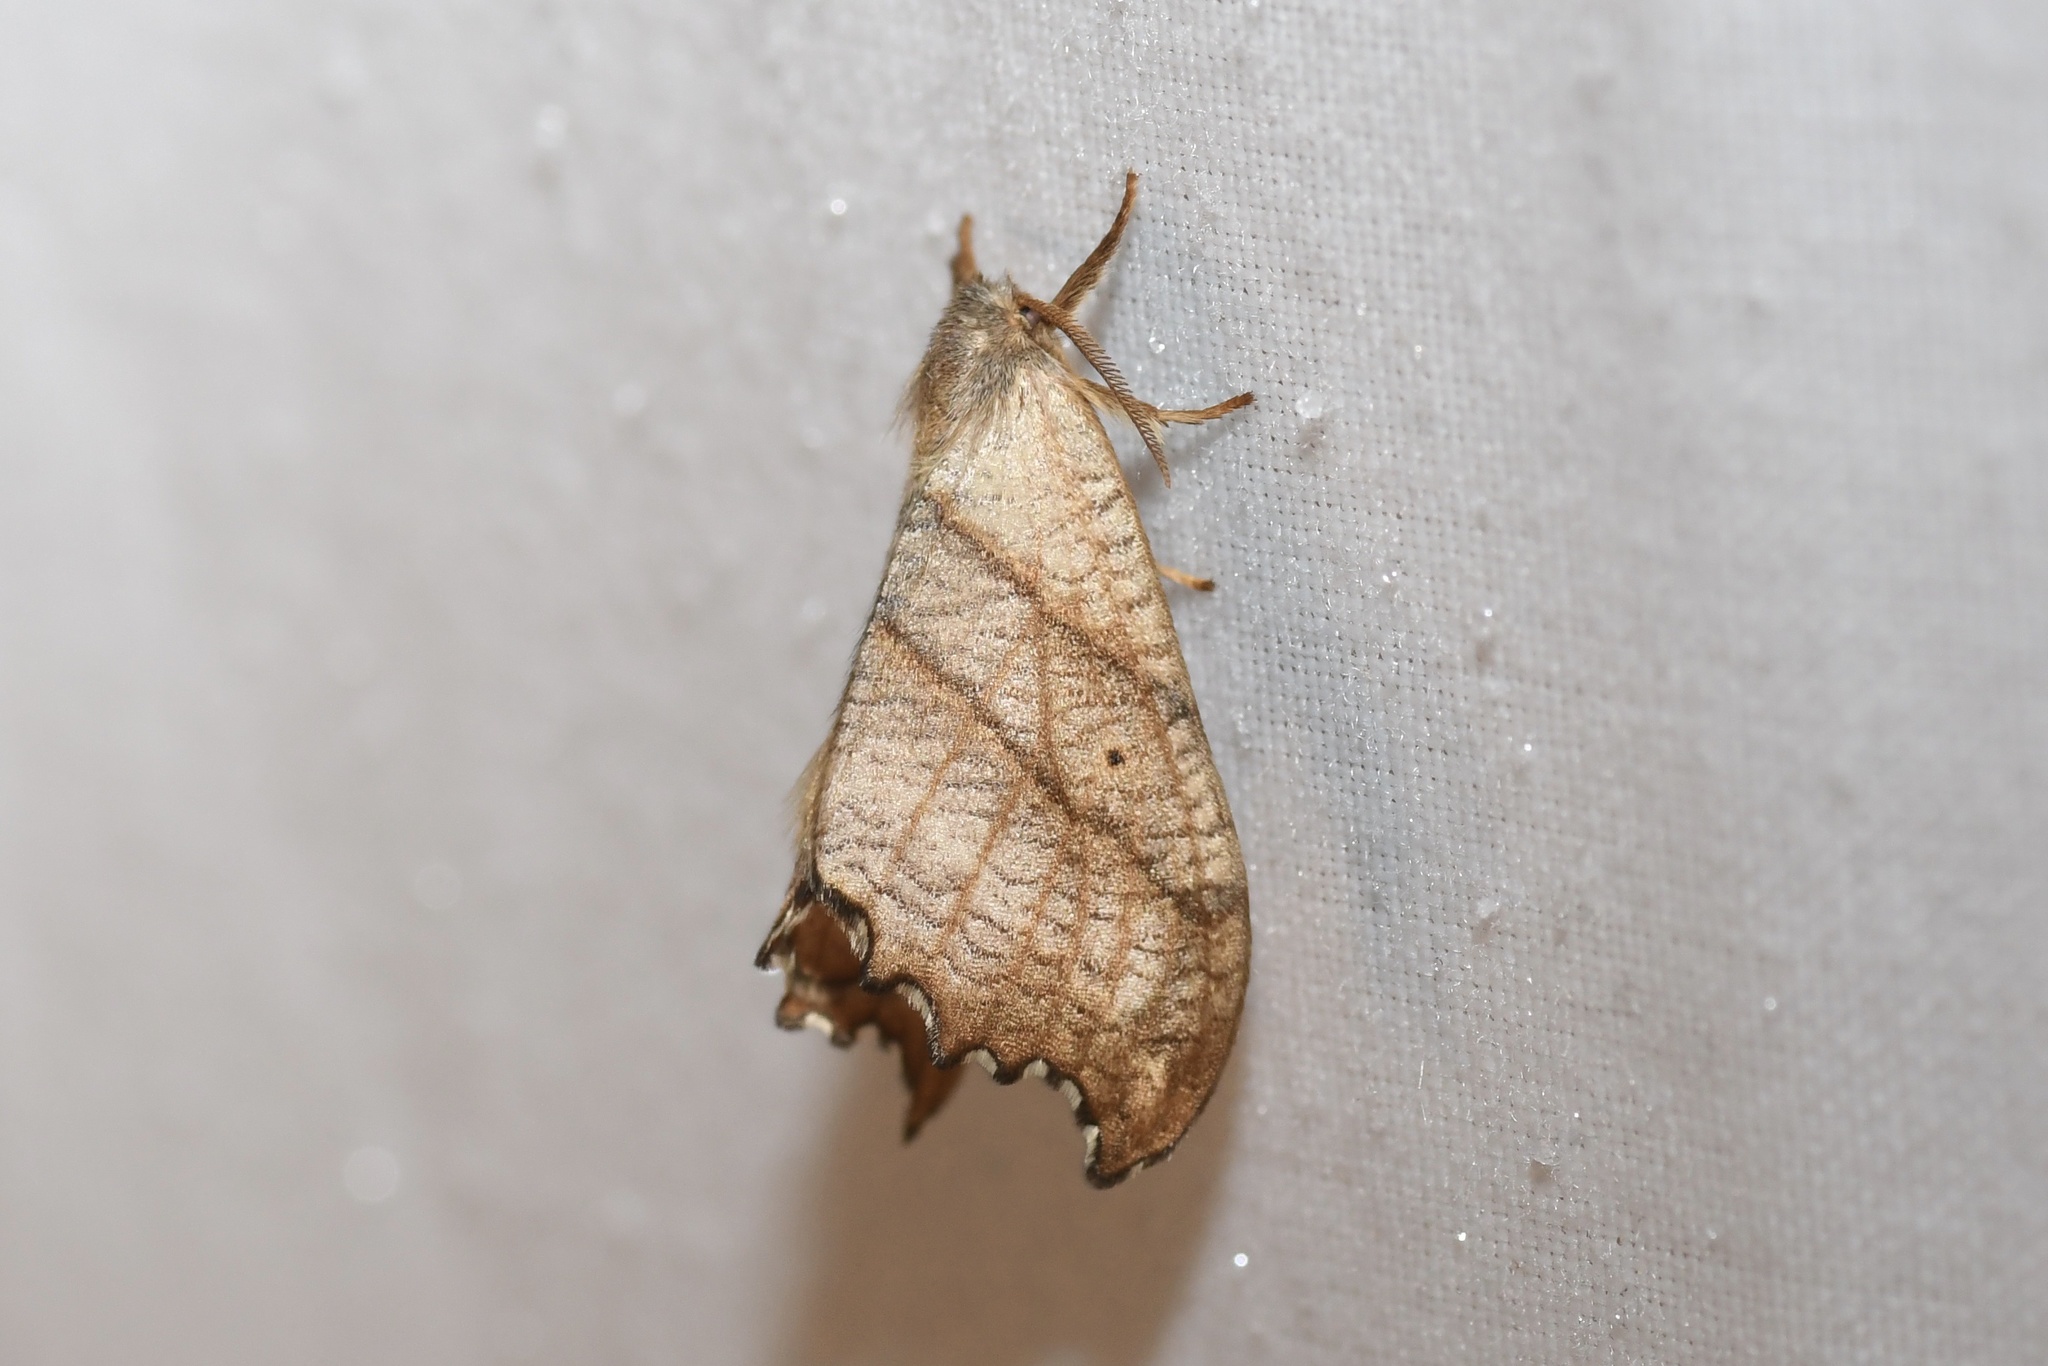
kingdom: Animalia
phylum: Arthropoda
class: Insecta
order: Lepidoptera
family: Drepanidae
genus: Falcaria
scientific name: Falcaria bilineata
